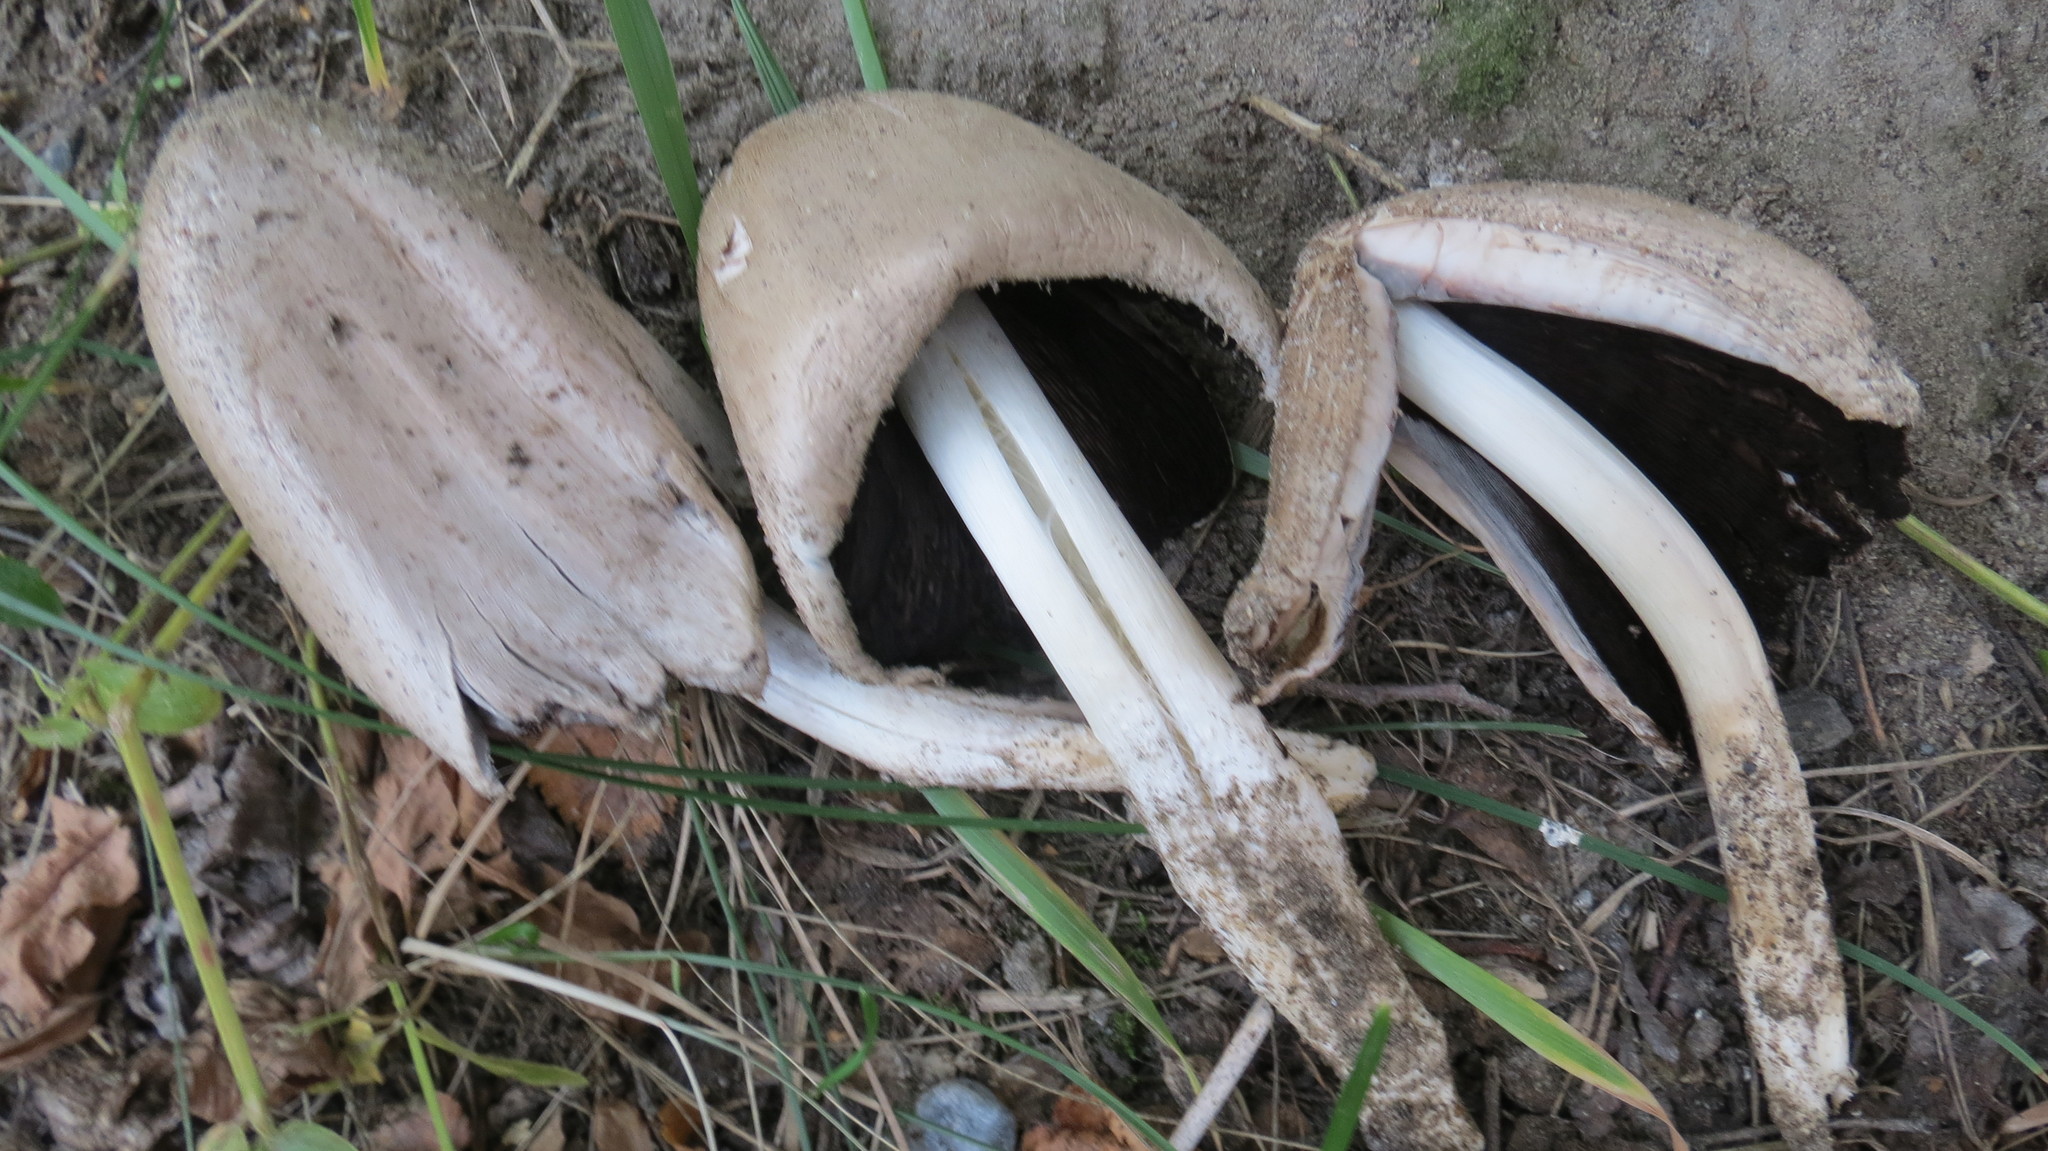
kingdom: Fungi
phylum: Basidiomycota
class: Agaricomycetes
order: Agaricales
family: Psathyrellaceae
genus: Coprinopsis
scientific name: Coprinopsis atramentaria
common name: Common ink-cap
